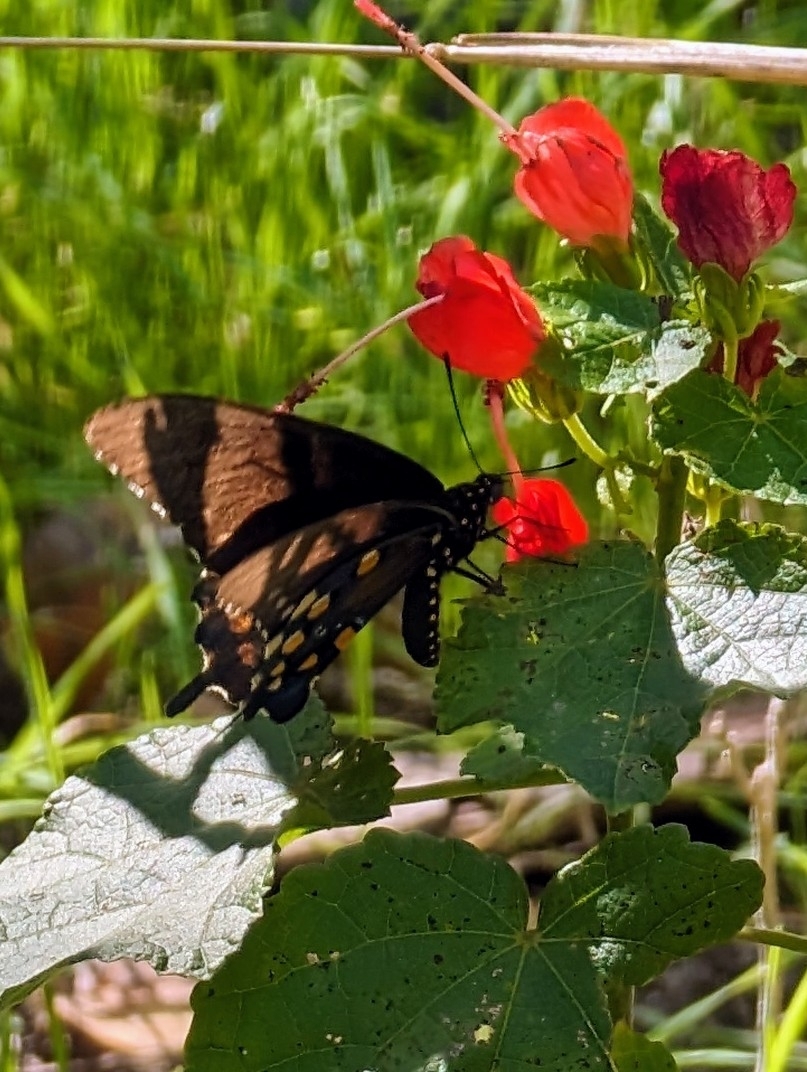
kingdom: Animalia
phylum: Arthropoda
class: Insecta
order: Lepidoptera
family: Papilionidae
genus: Battus
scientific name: Battus philenor
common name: Pipevine swallowtail
